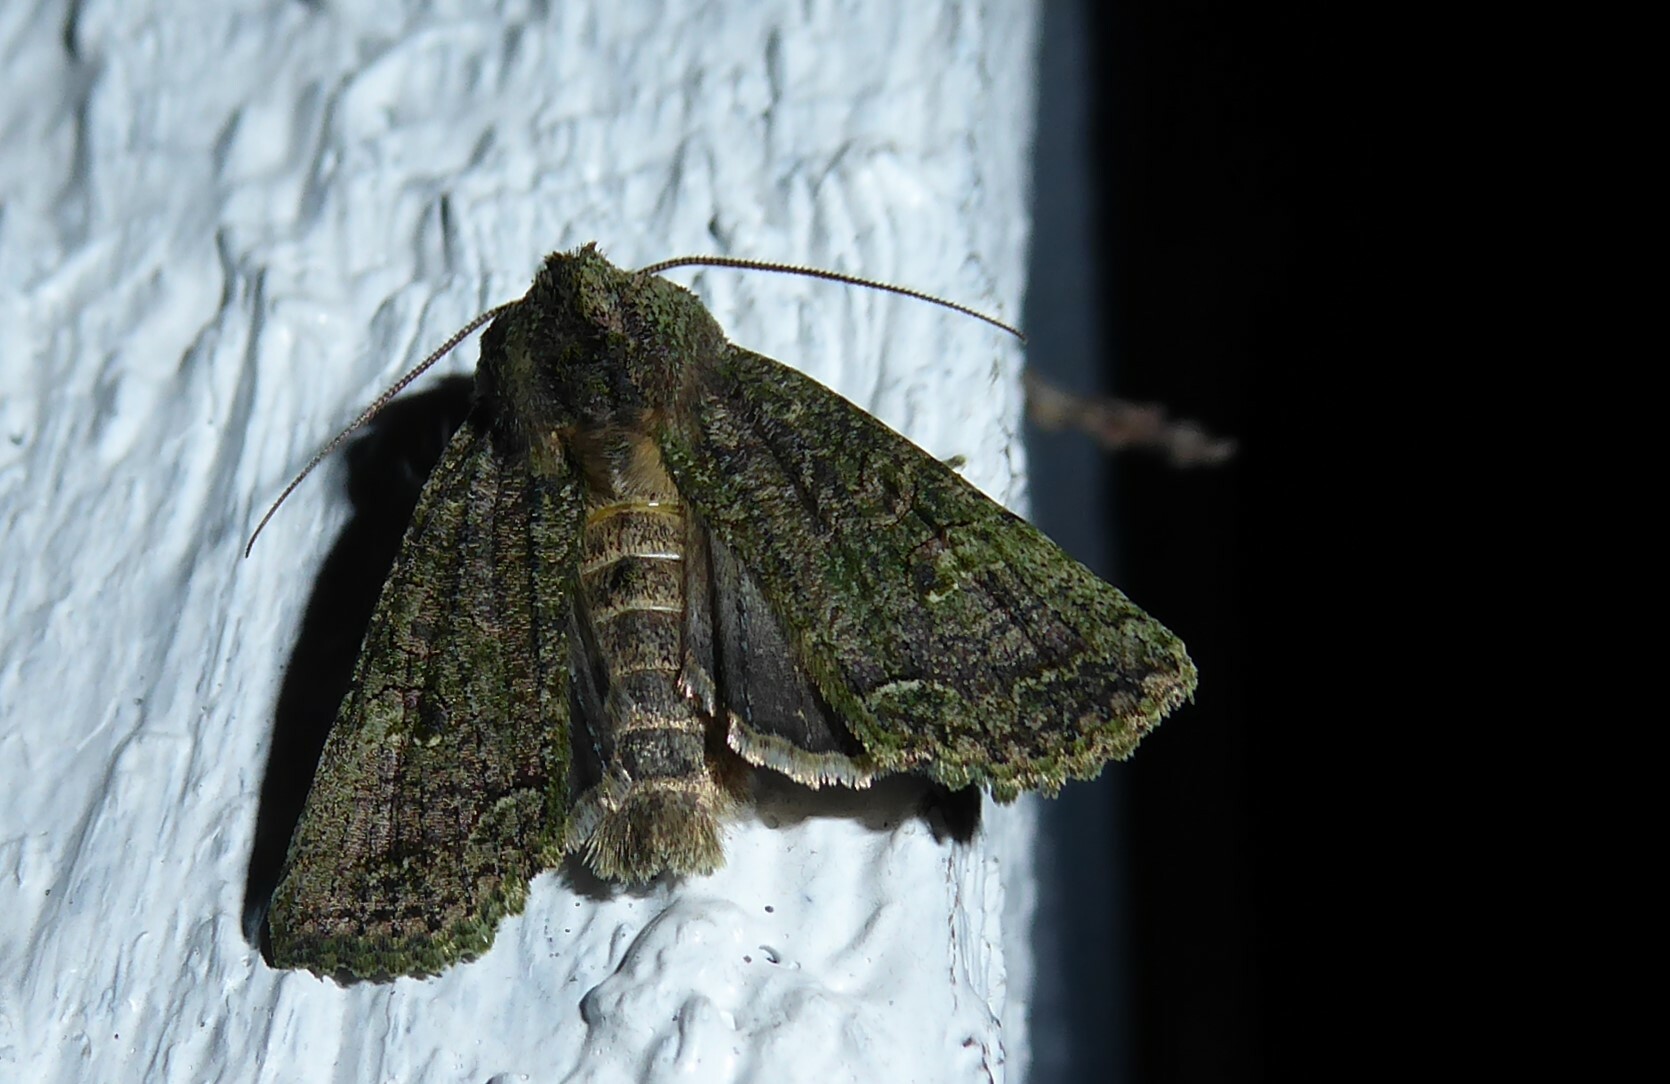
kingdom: Animalia
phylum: Arthropoda
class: Insecta
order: Lepidoptera
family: Noctuidae
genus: Meterana
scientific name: Meterana levis
